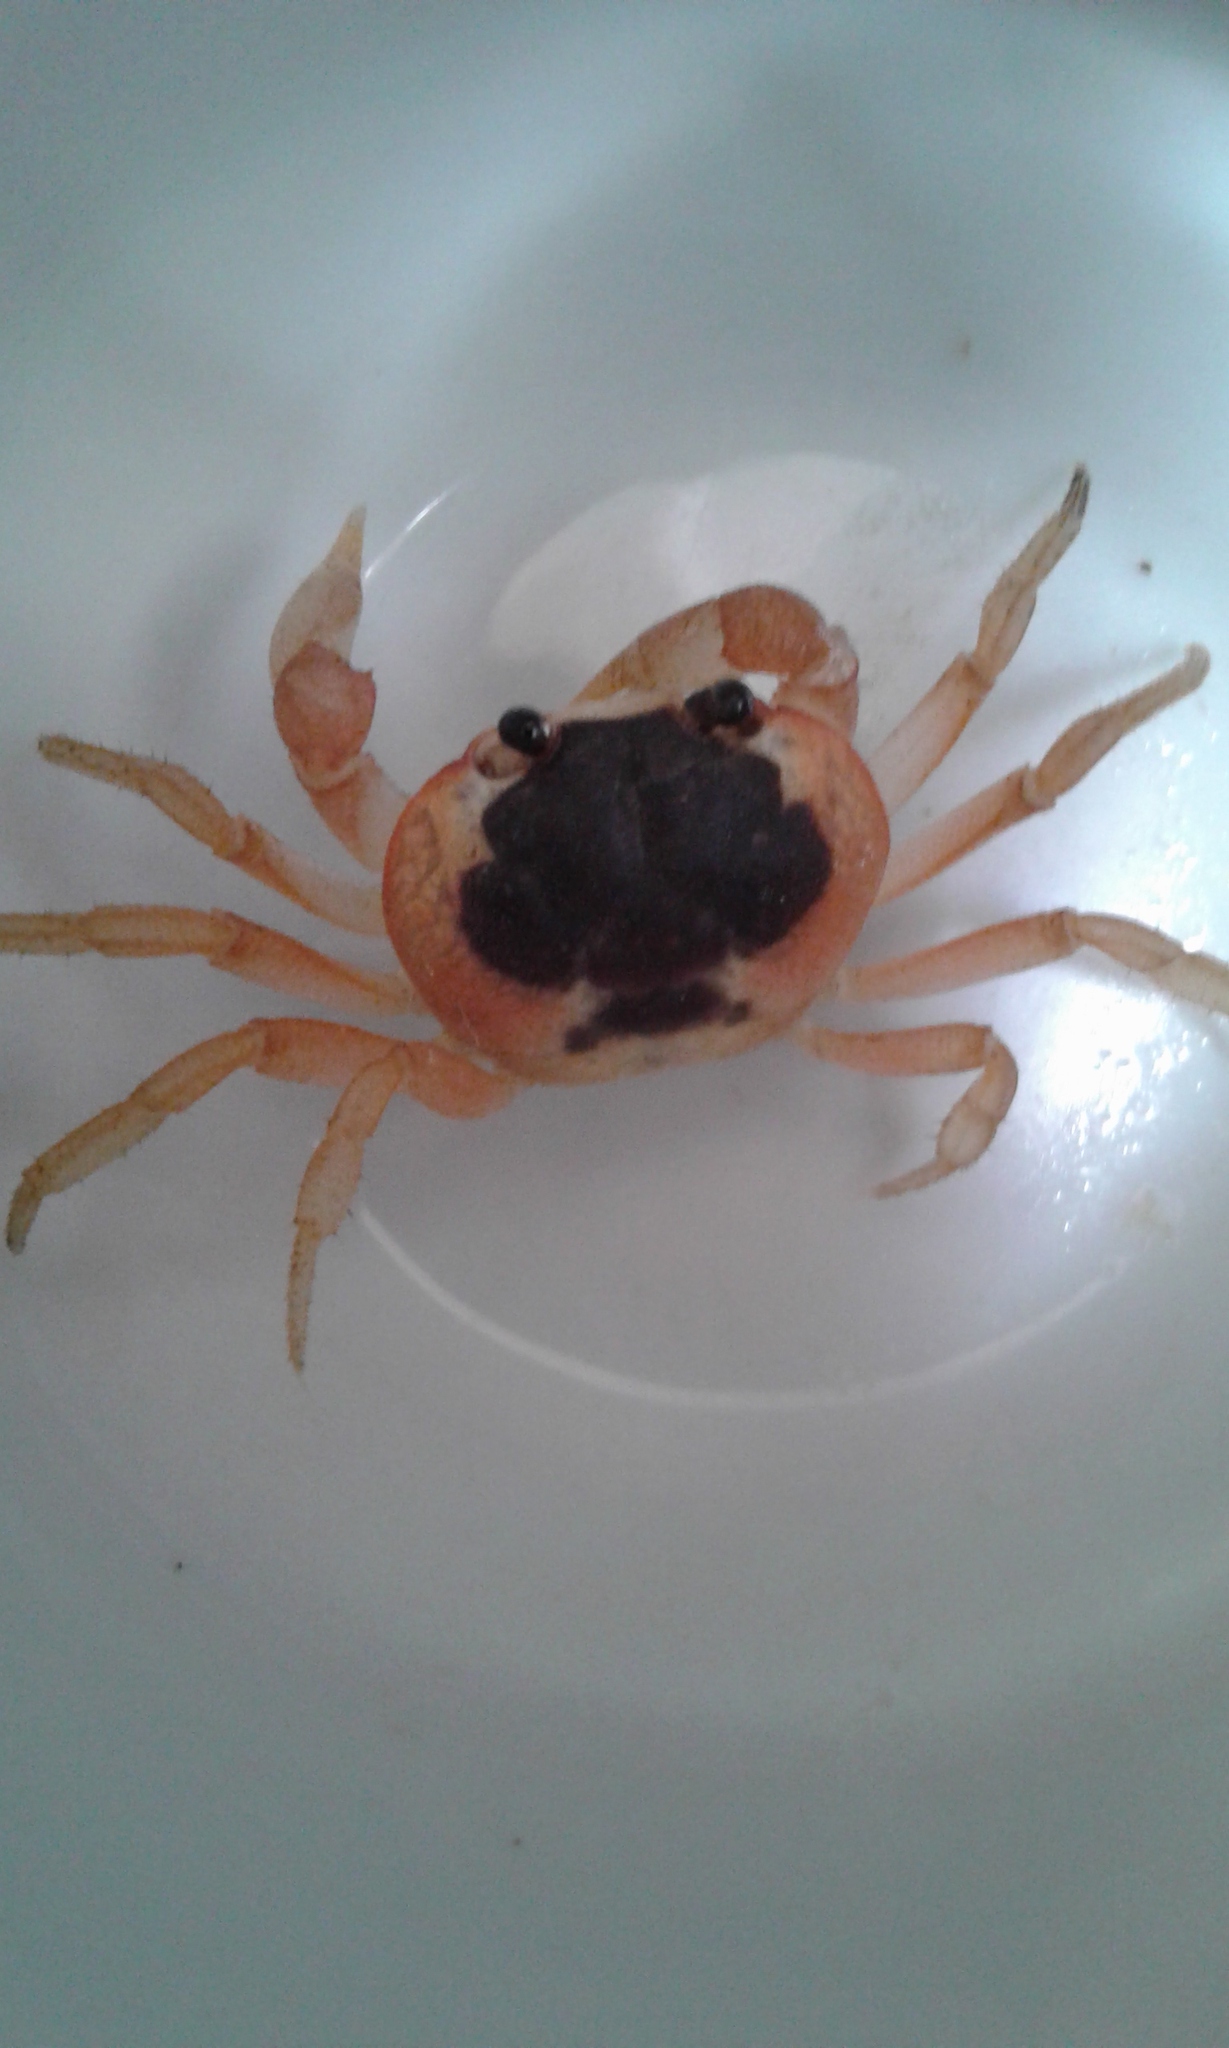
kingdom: Animalia
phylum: Arthropoda
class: Malacostraca
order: Decapoda
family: Gecarcinidae
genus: Gecarcinus
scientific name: Gecarcinus lateralis
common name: Bermuda land crab
